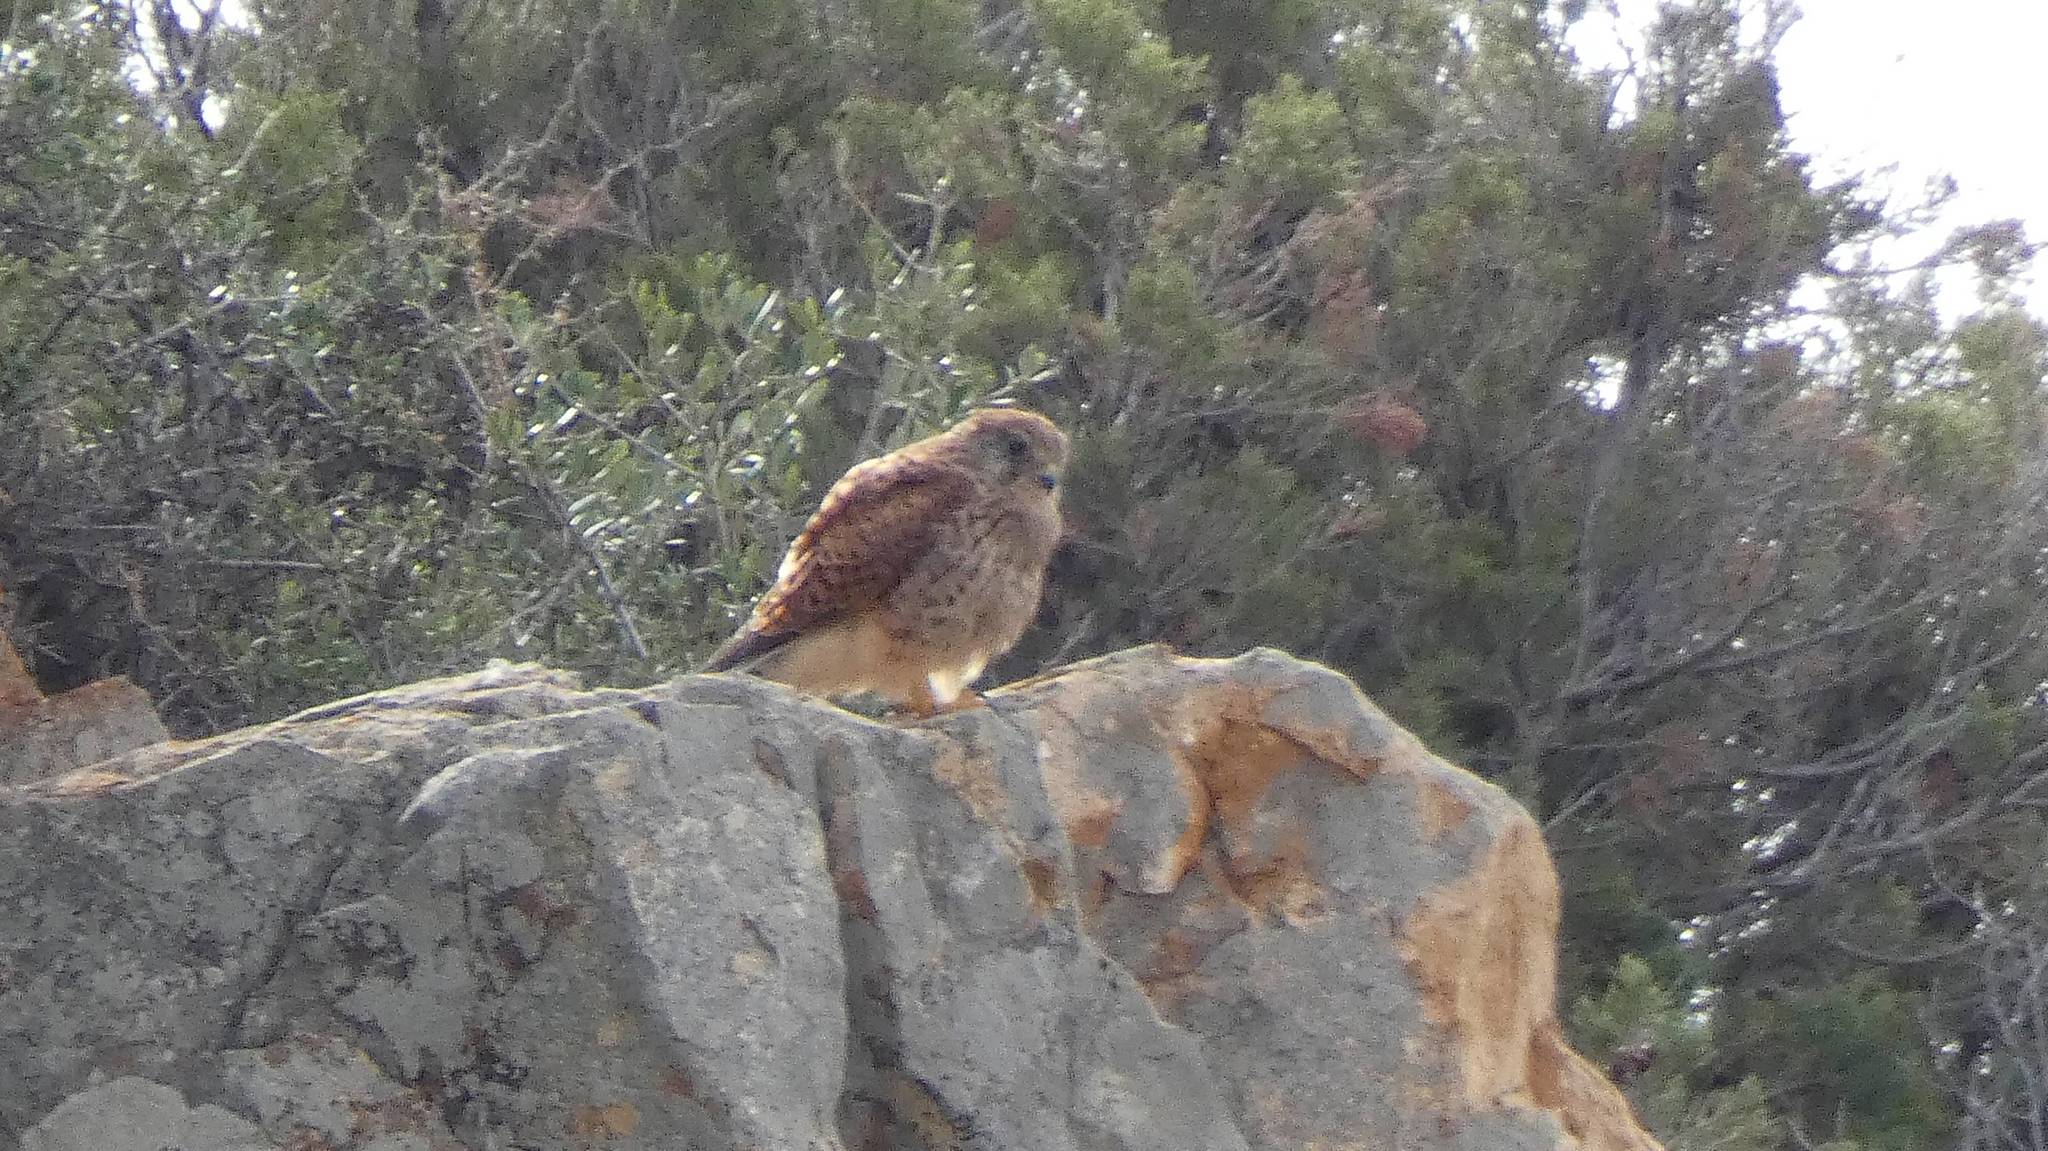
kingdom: Animalia
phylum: Chordata
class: Aves
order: Falconiformes
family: Falconidae
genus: Falco
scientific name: Falco tinnunculus
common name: Common kestrel
